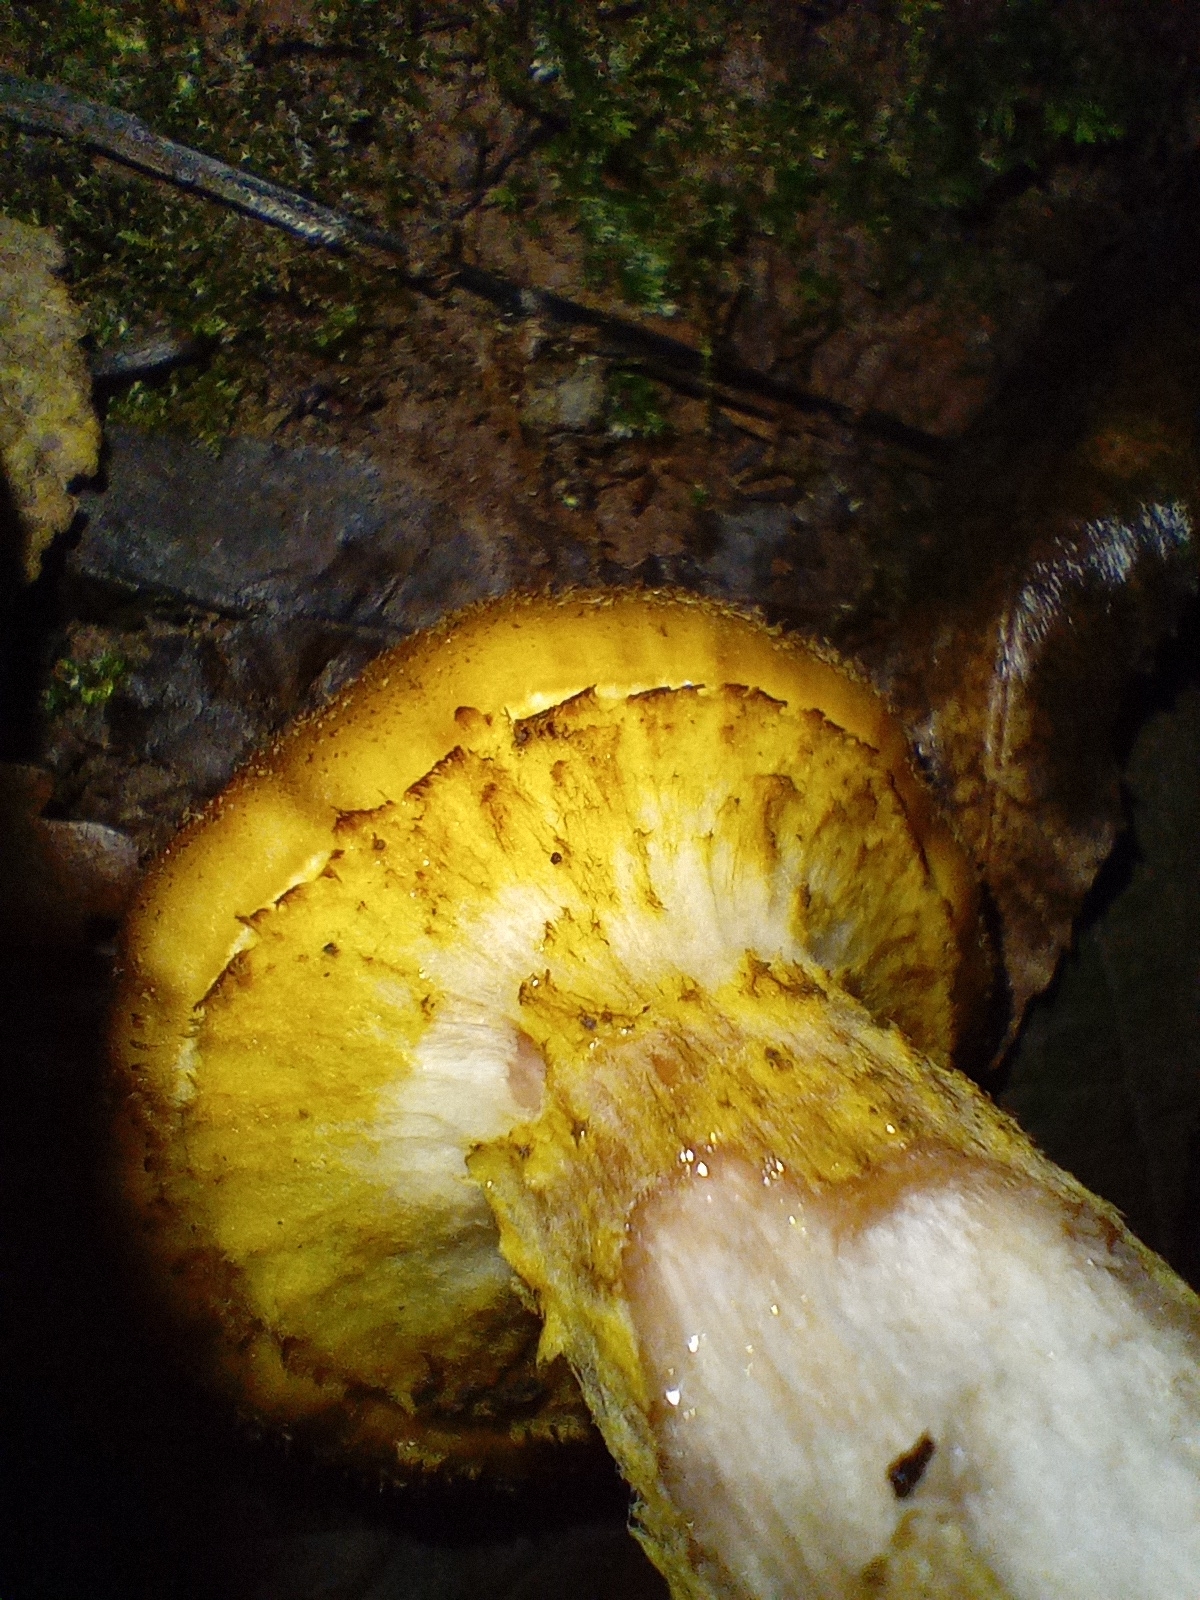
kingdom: Fungi
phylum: Basidiomycota
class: Agaricomycetes
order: Agaricales
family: Physalacriaceae
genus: Armillaria
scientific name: Armillaria gallica
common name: Bulbous honey fungus
